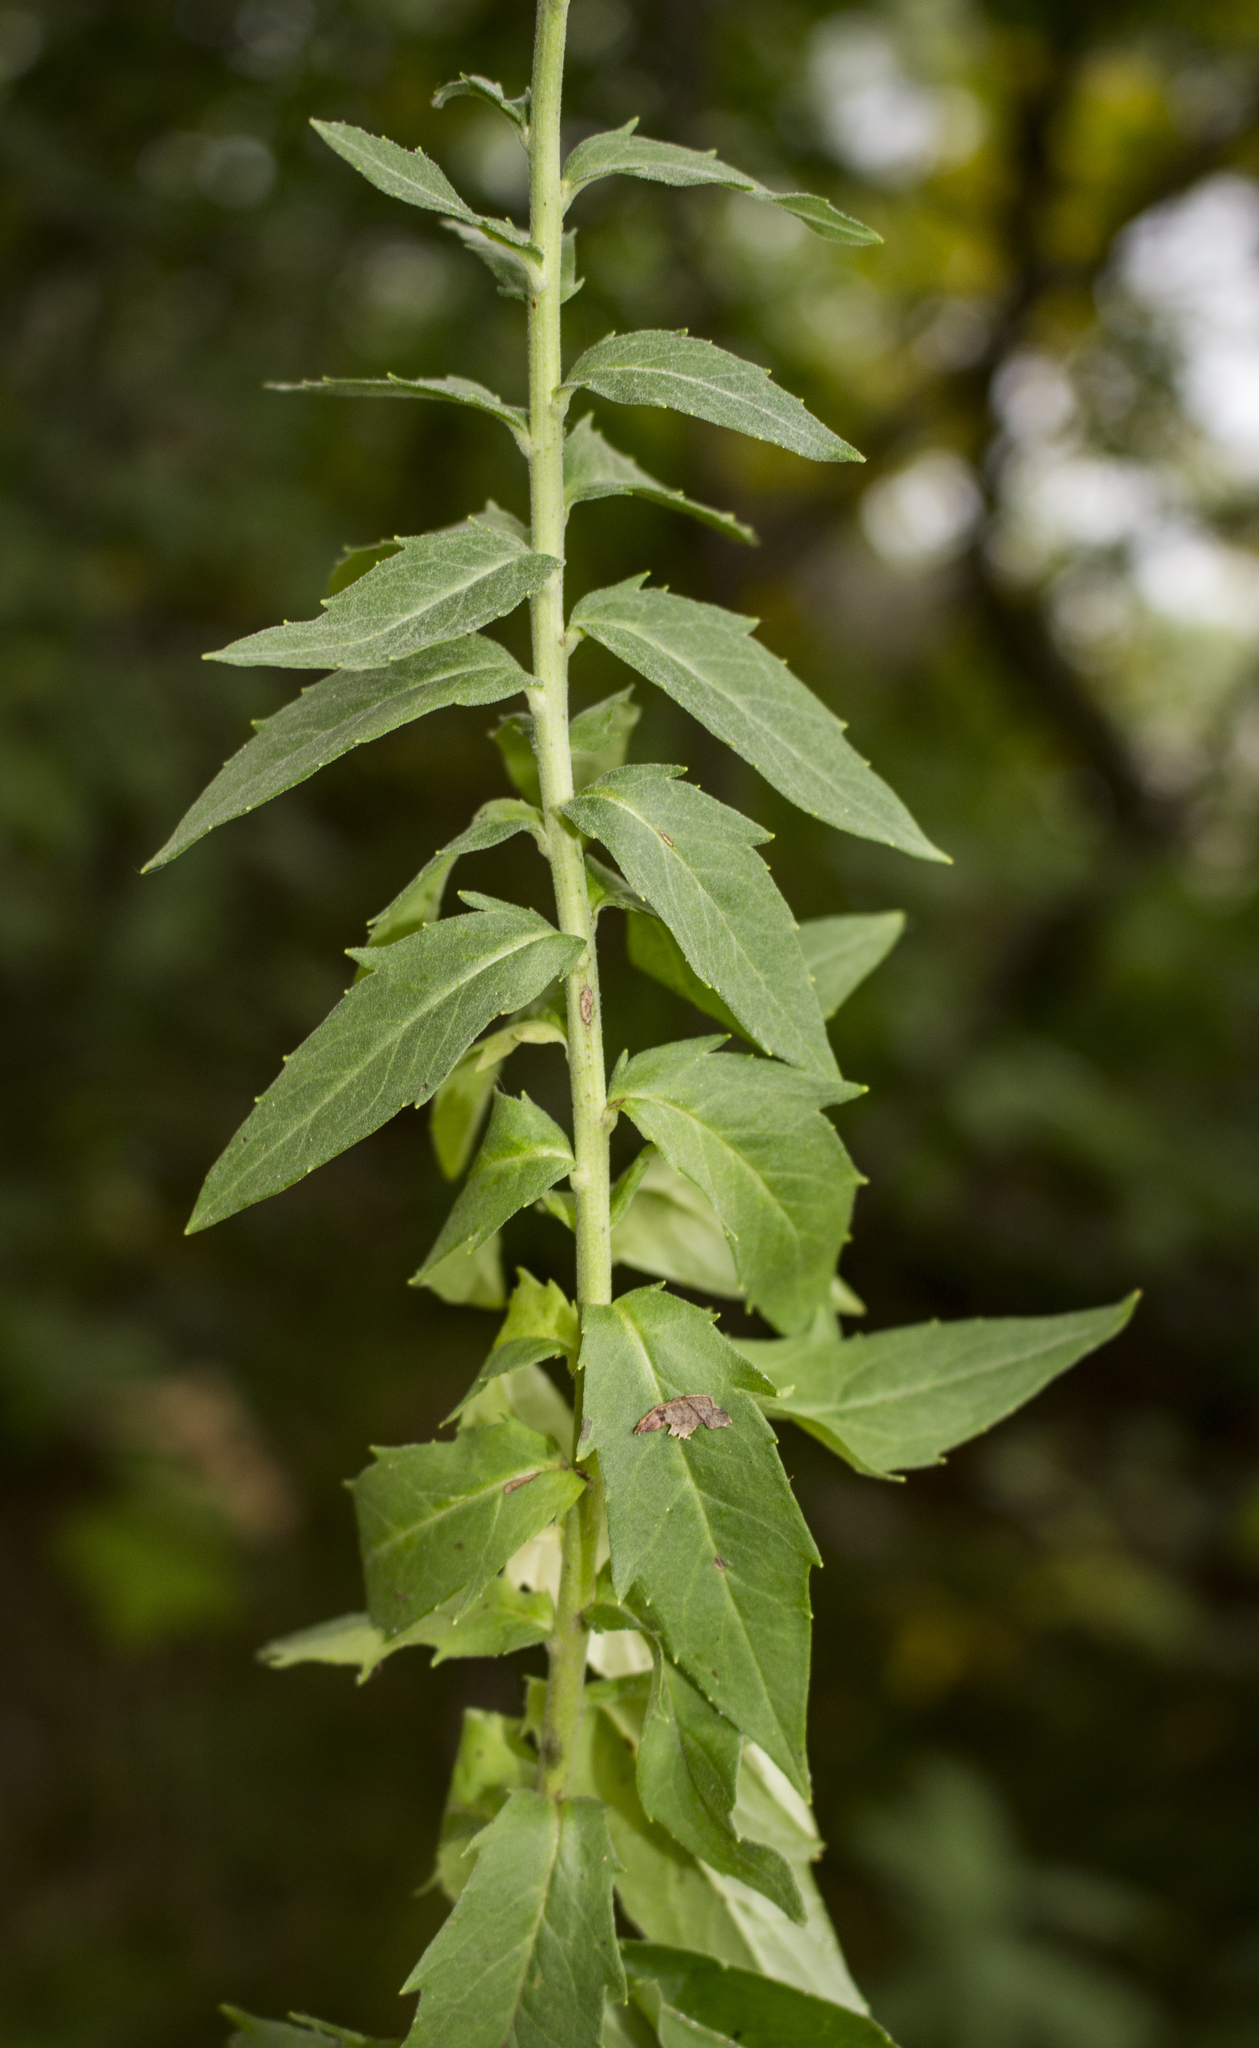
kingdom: Plantae
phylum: Tracheophyta
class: Magnoliopsida
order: Asterales
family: Asteraceae
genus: Hieracium
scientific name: Hieracium umbellatum
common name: Northern hawkweed
